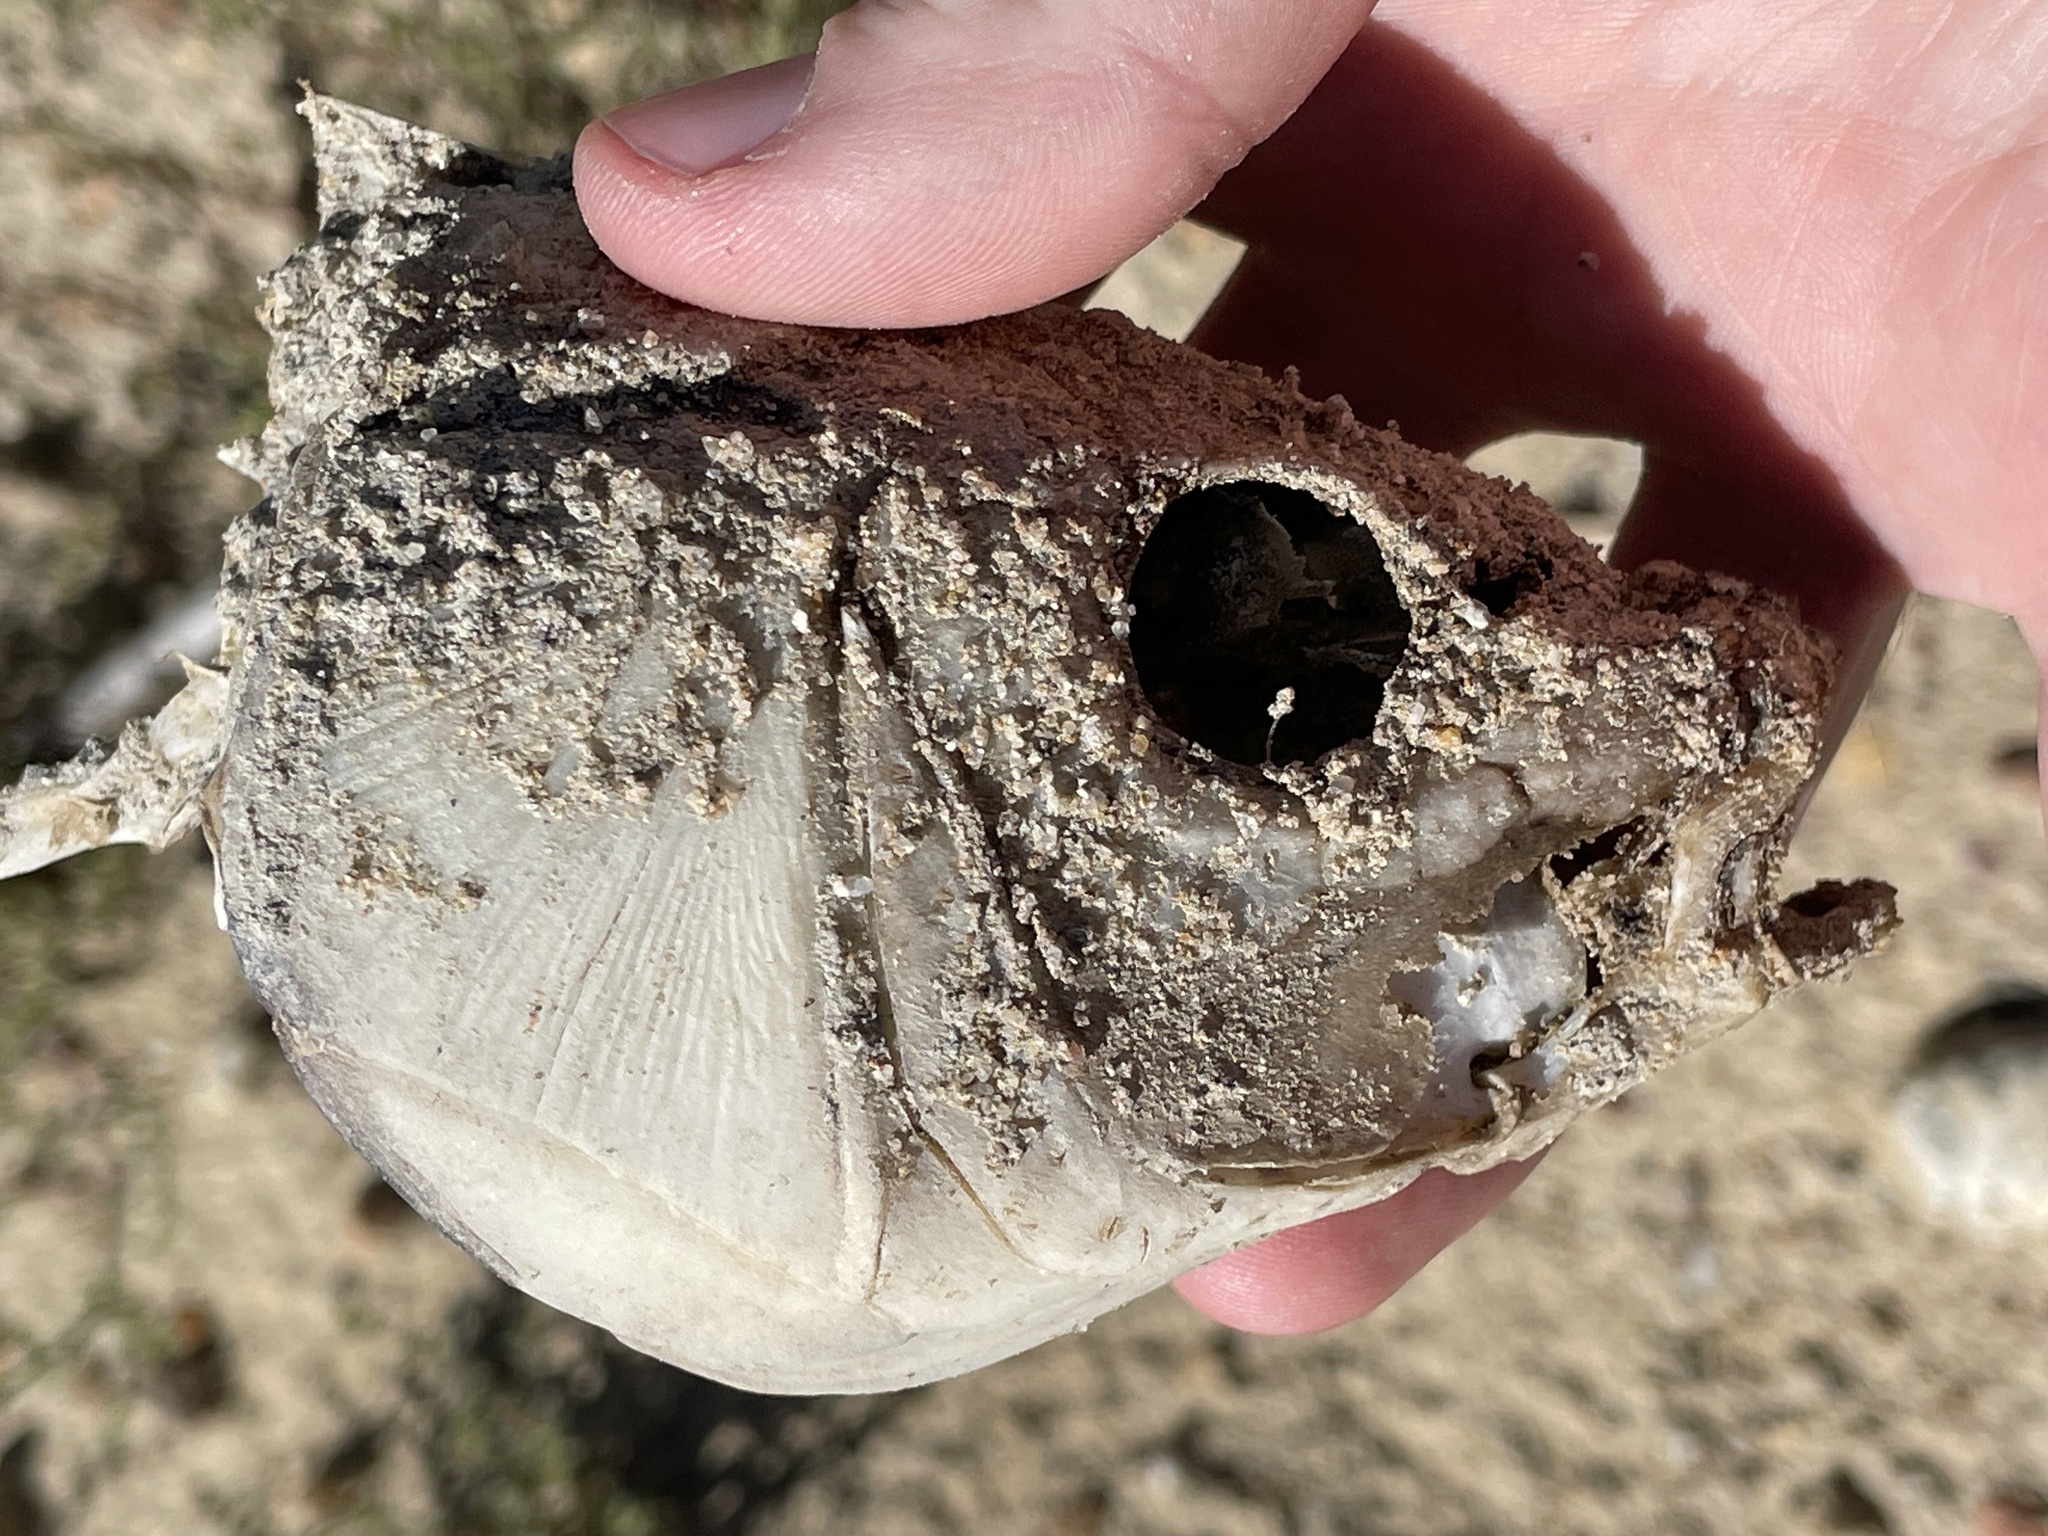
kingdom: Animalia
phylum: Chordata
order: Cypriniformes
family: Cyprinidae
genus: Cyprinus
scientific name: Cyprinus carpio
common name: Common carp
